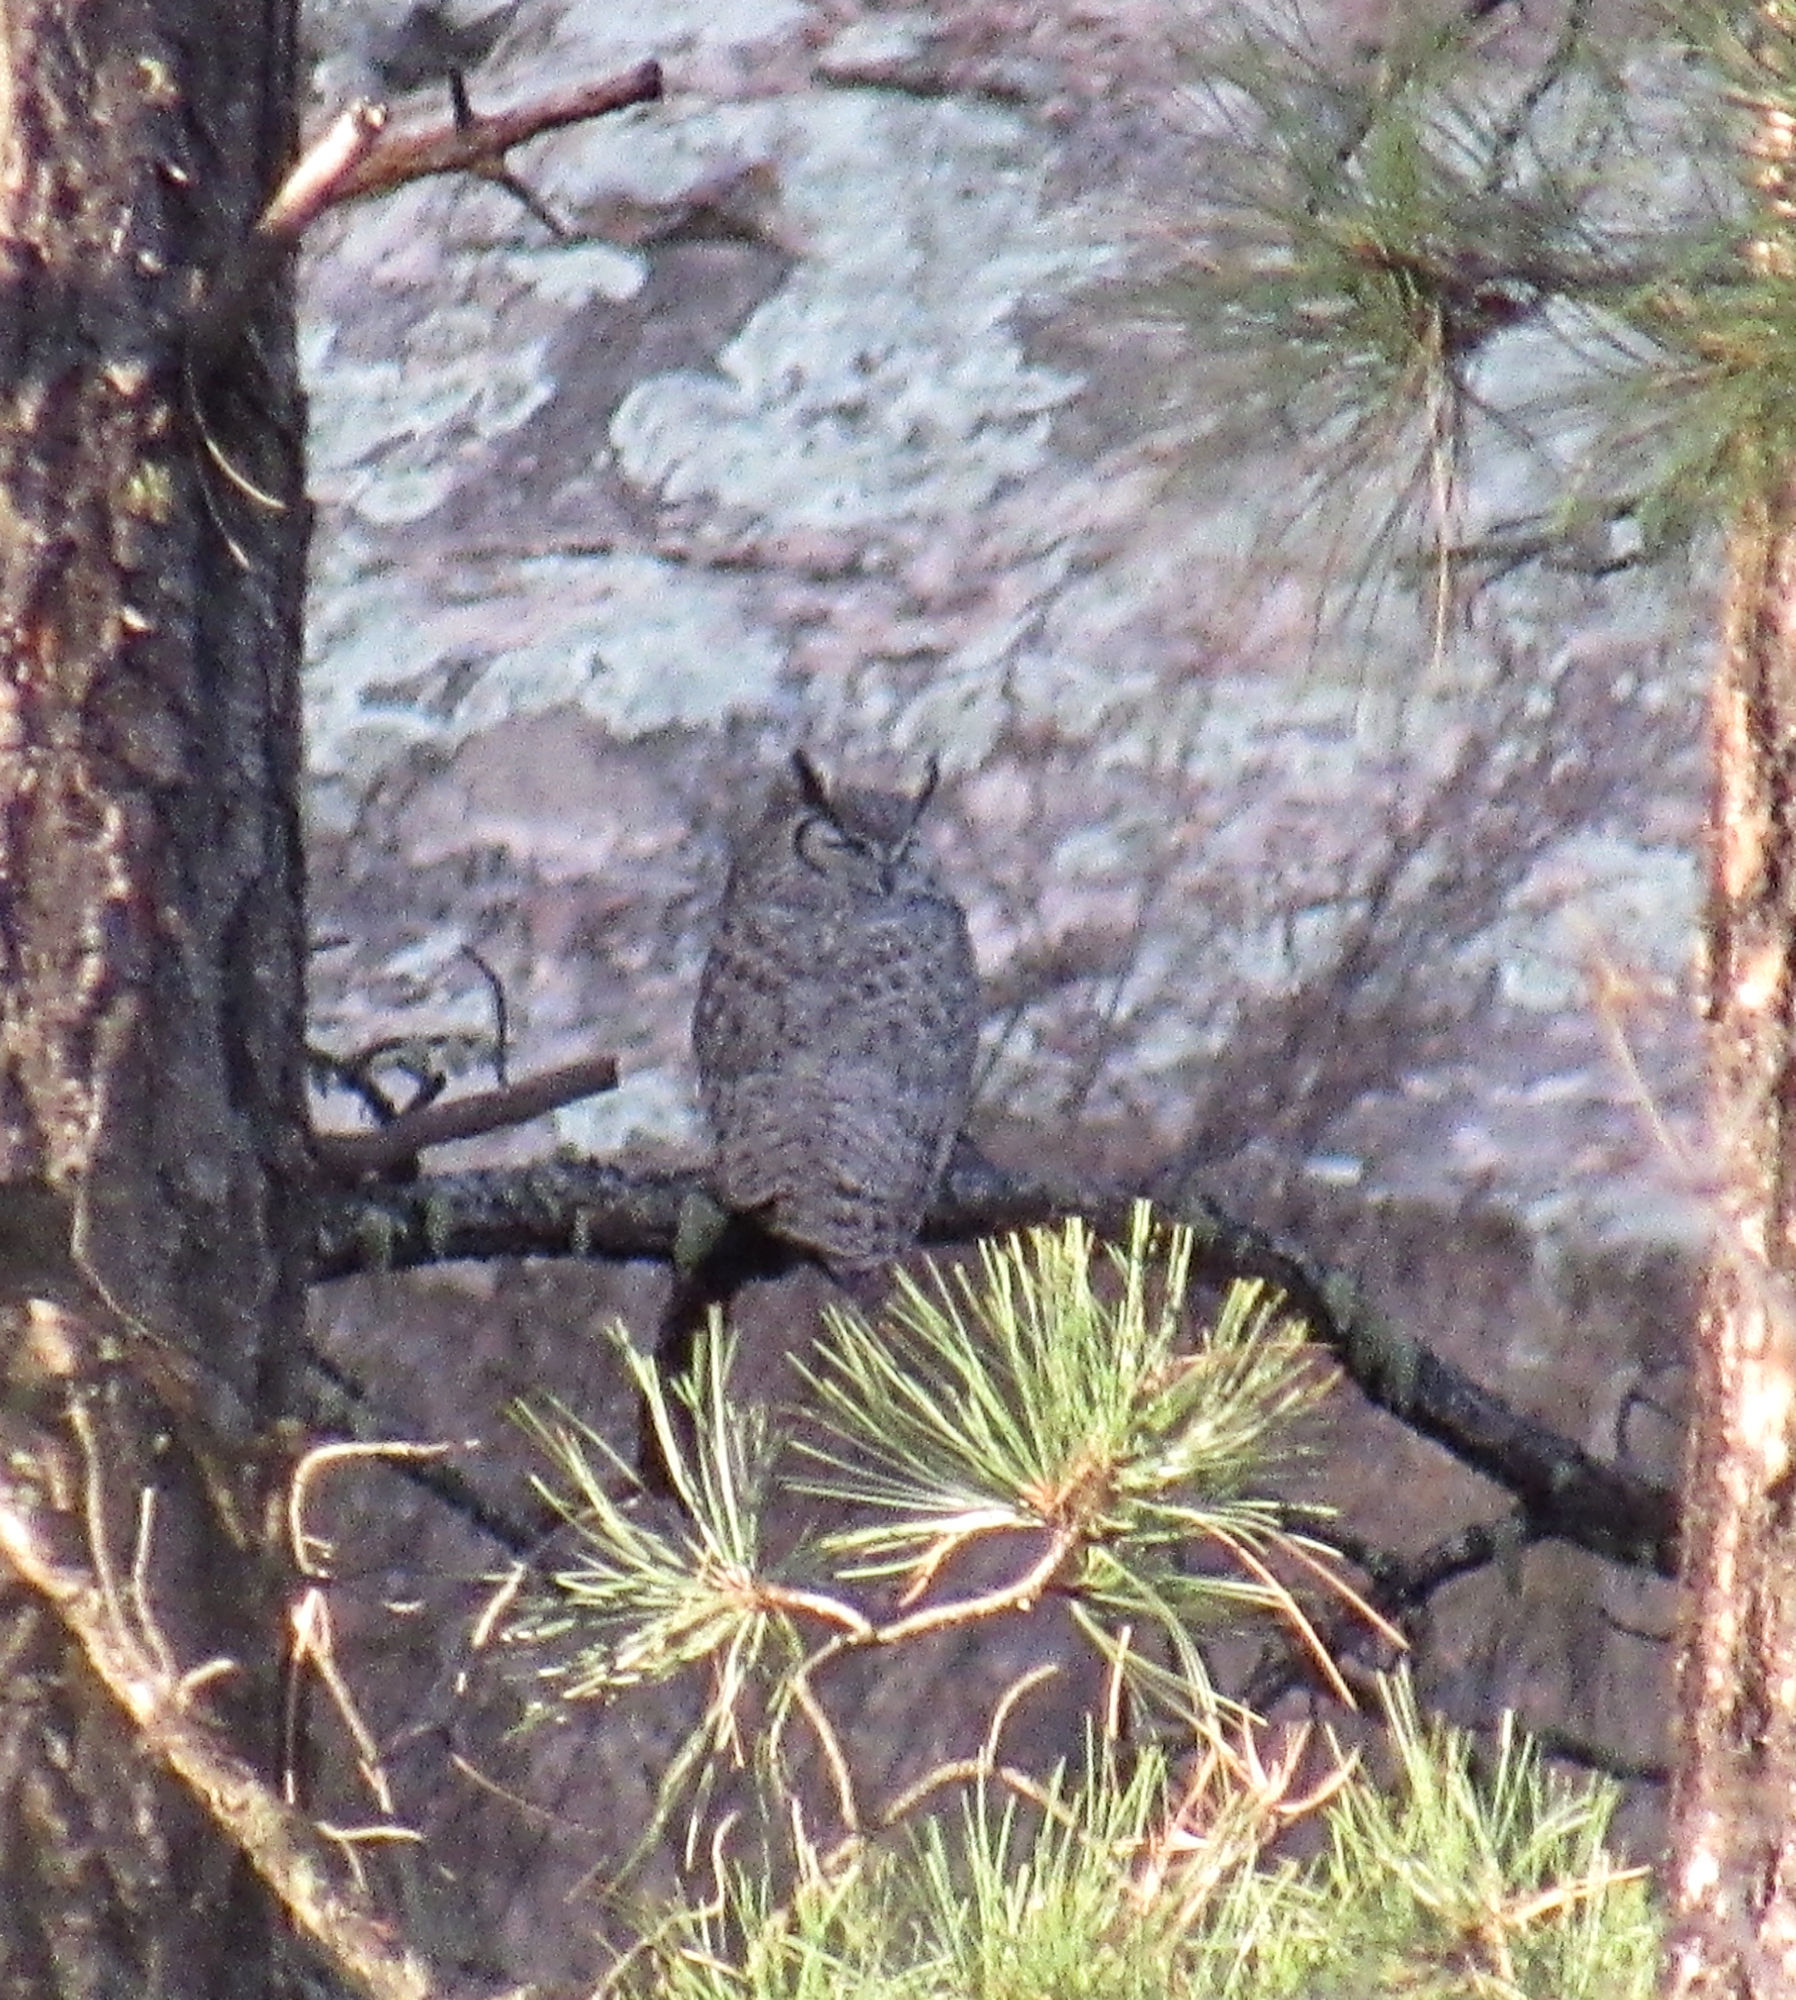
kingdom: Animalia
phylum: Chordata
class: Aves
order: Strigiformes
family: Strigidae
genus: Bubo
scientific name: Bubo virginianus
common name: Great horned owl
